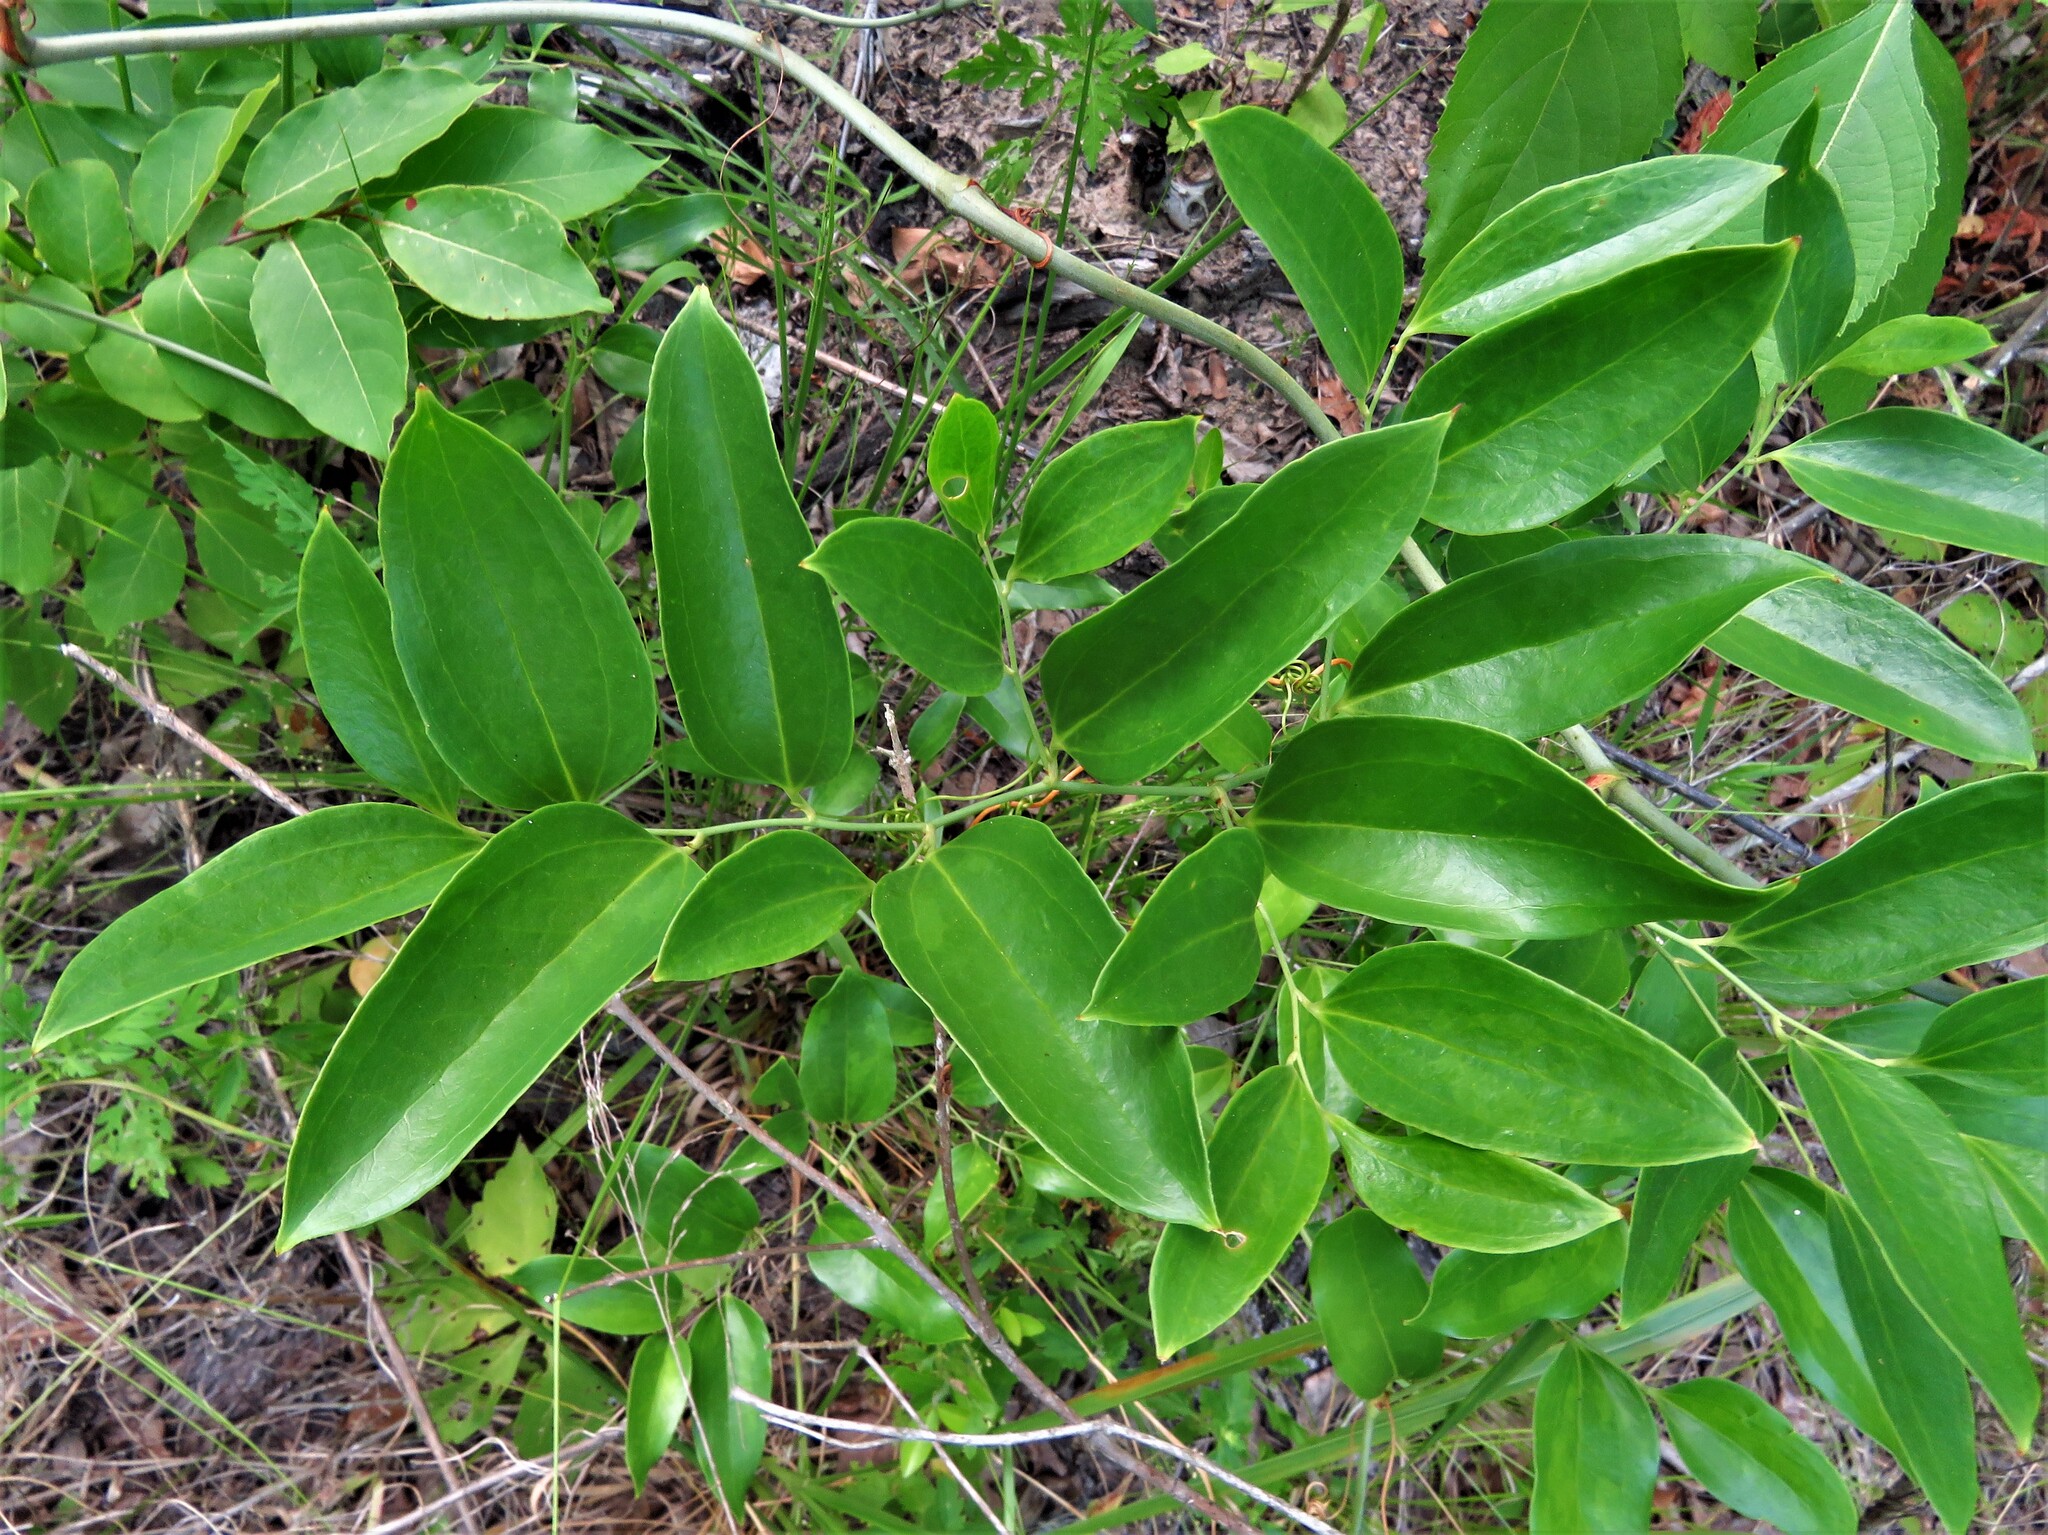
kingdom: Plantae
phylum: Tracheophyta
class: Liliopsida
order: Liliales
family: Smilacaceae
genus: Smilax
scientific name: Smilax maritima
